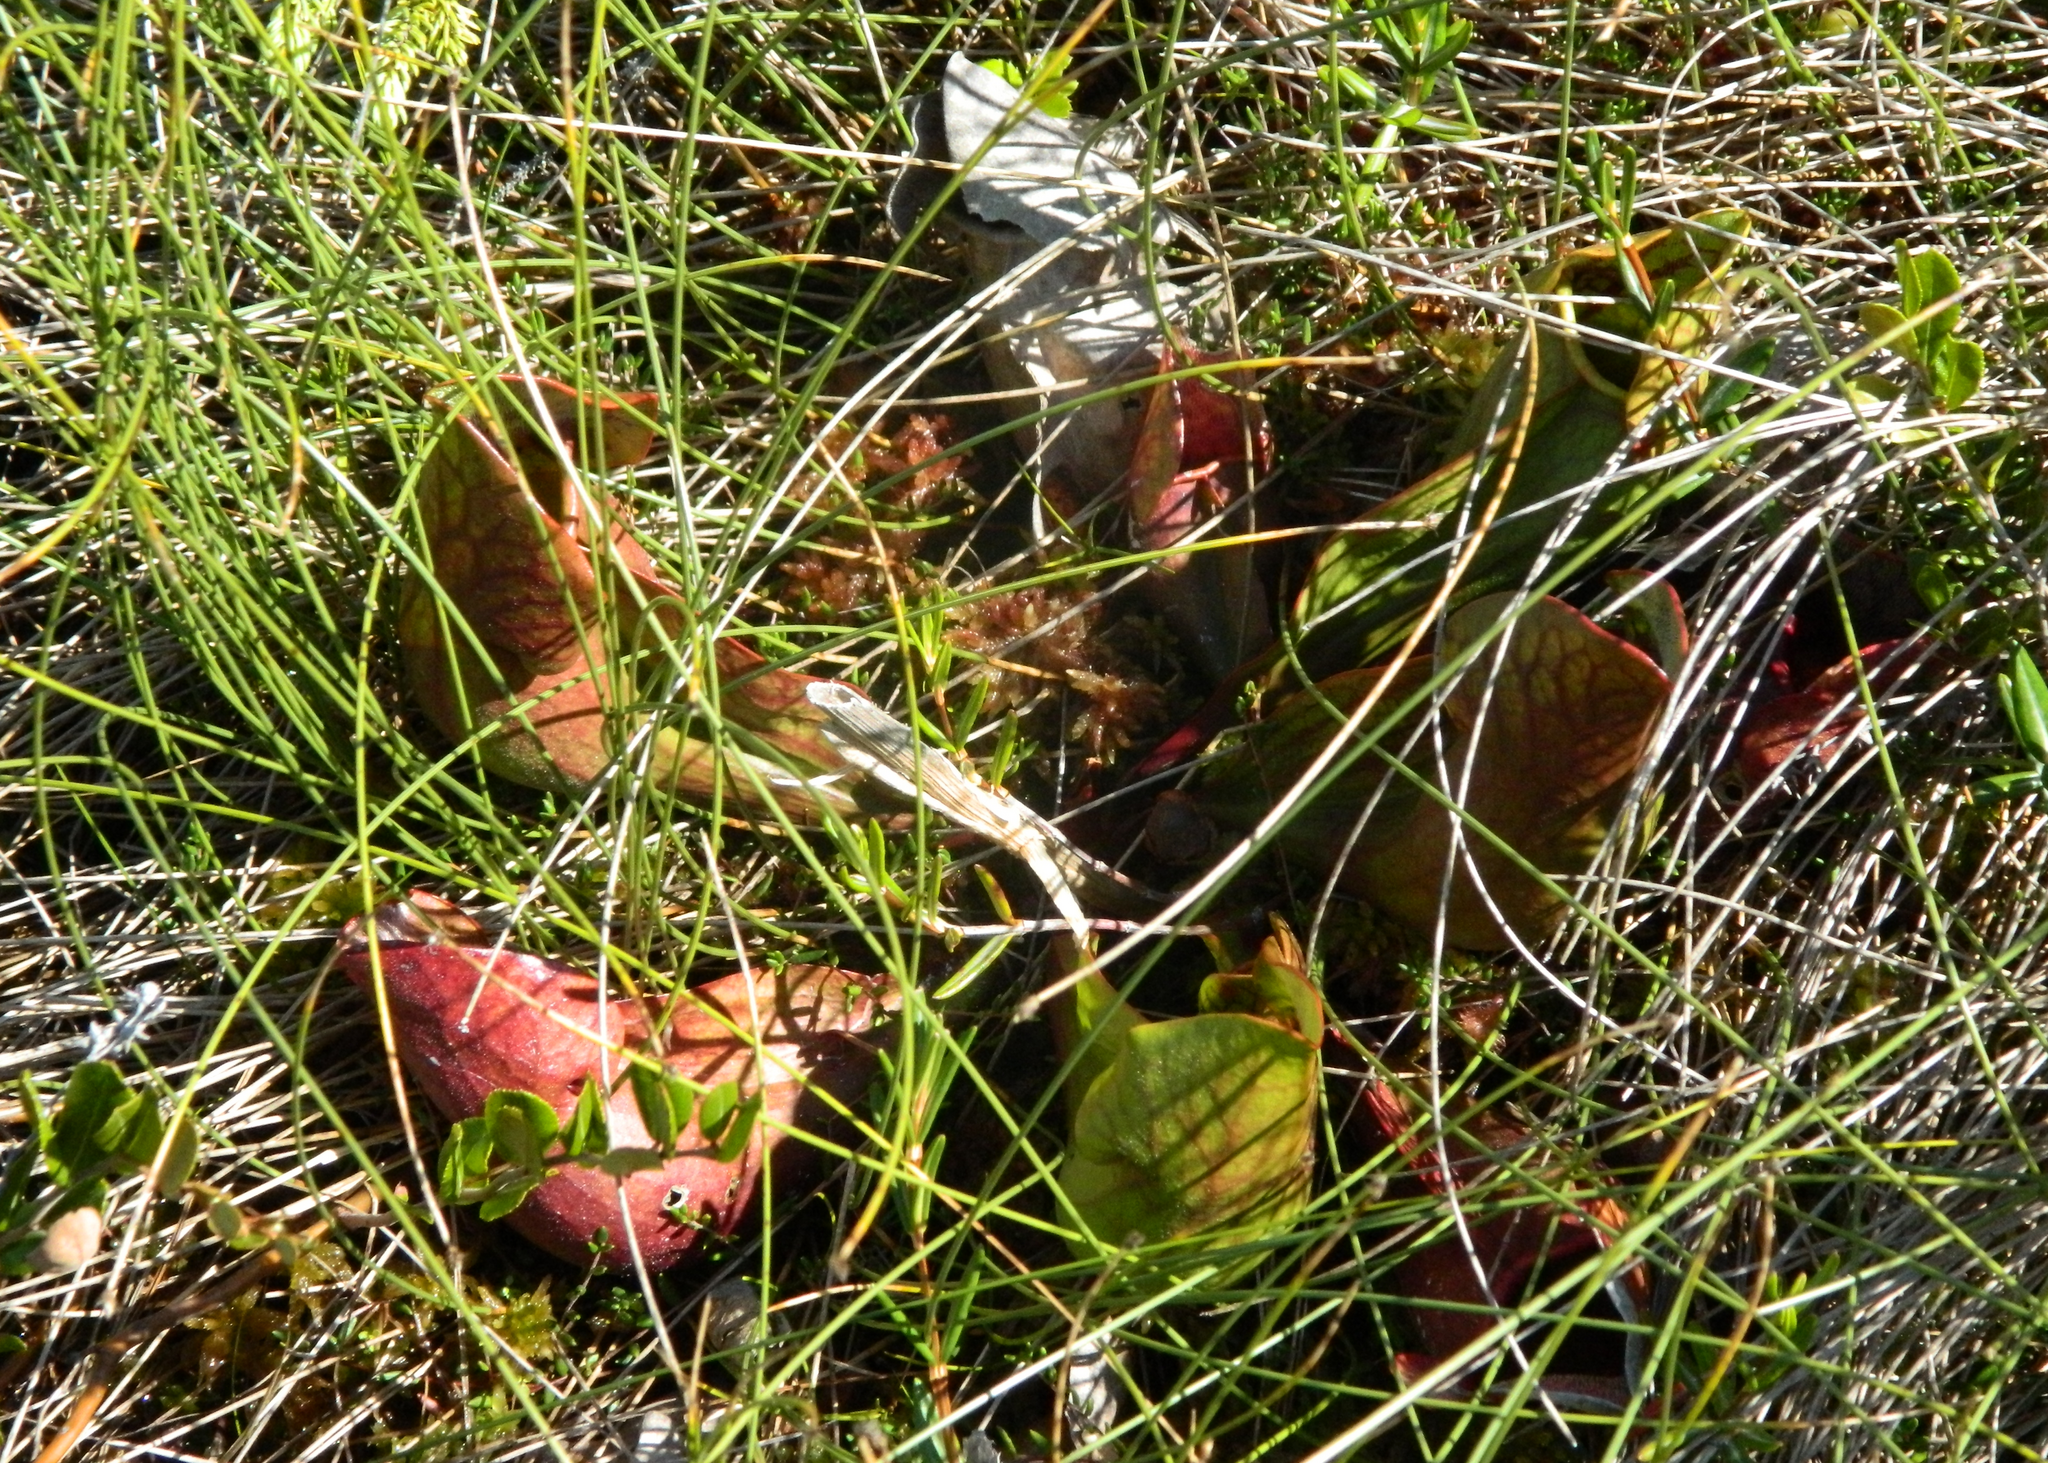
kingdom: Plantae
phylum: Tracheophyta
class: Magnoliopsida
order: Ericales
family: Sarraceniaceae
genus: Sarracenia
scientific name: Sarracenia purpurea
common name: Pitcherplant
